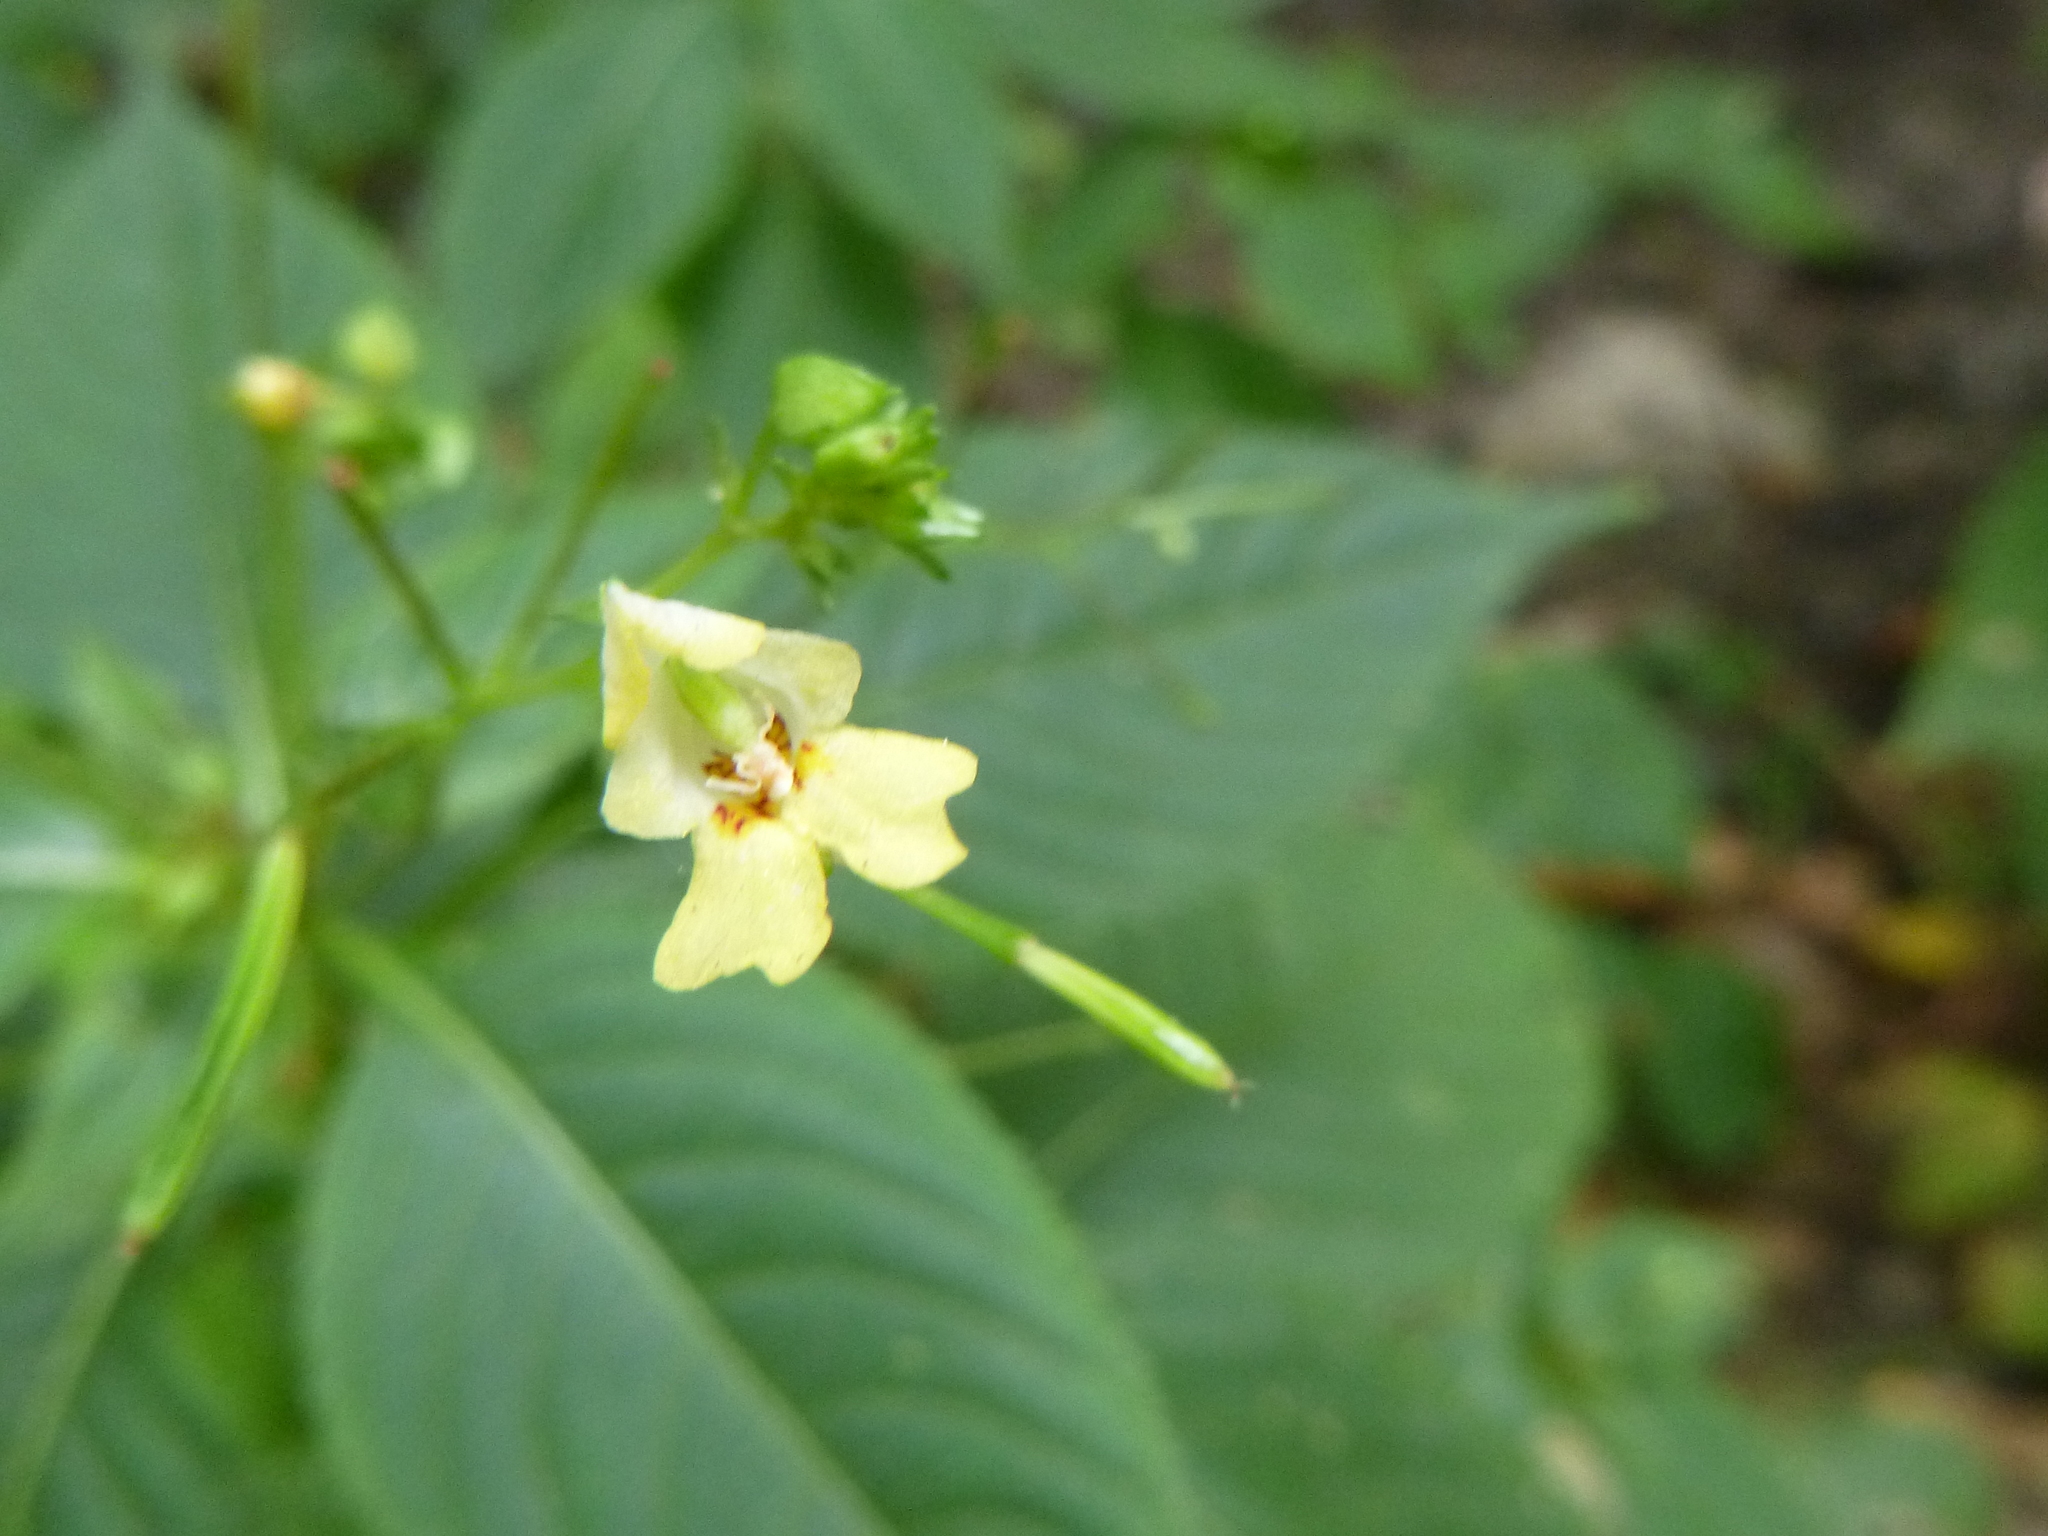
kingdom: Plantae
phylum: Tracheophyta
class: Magnoliopsida
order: Ericales
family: Balsaminaceae
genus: Impatiens
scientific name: Impatiens parviflora
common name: Small balsam
